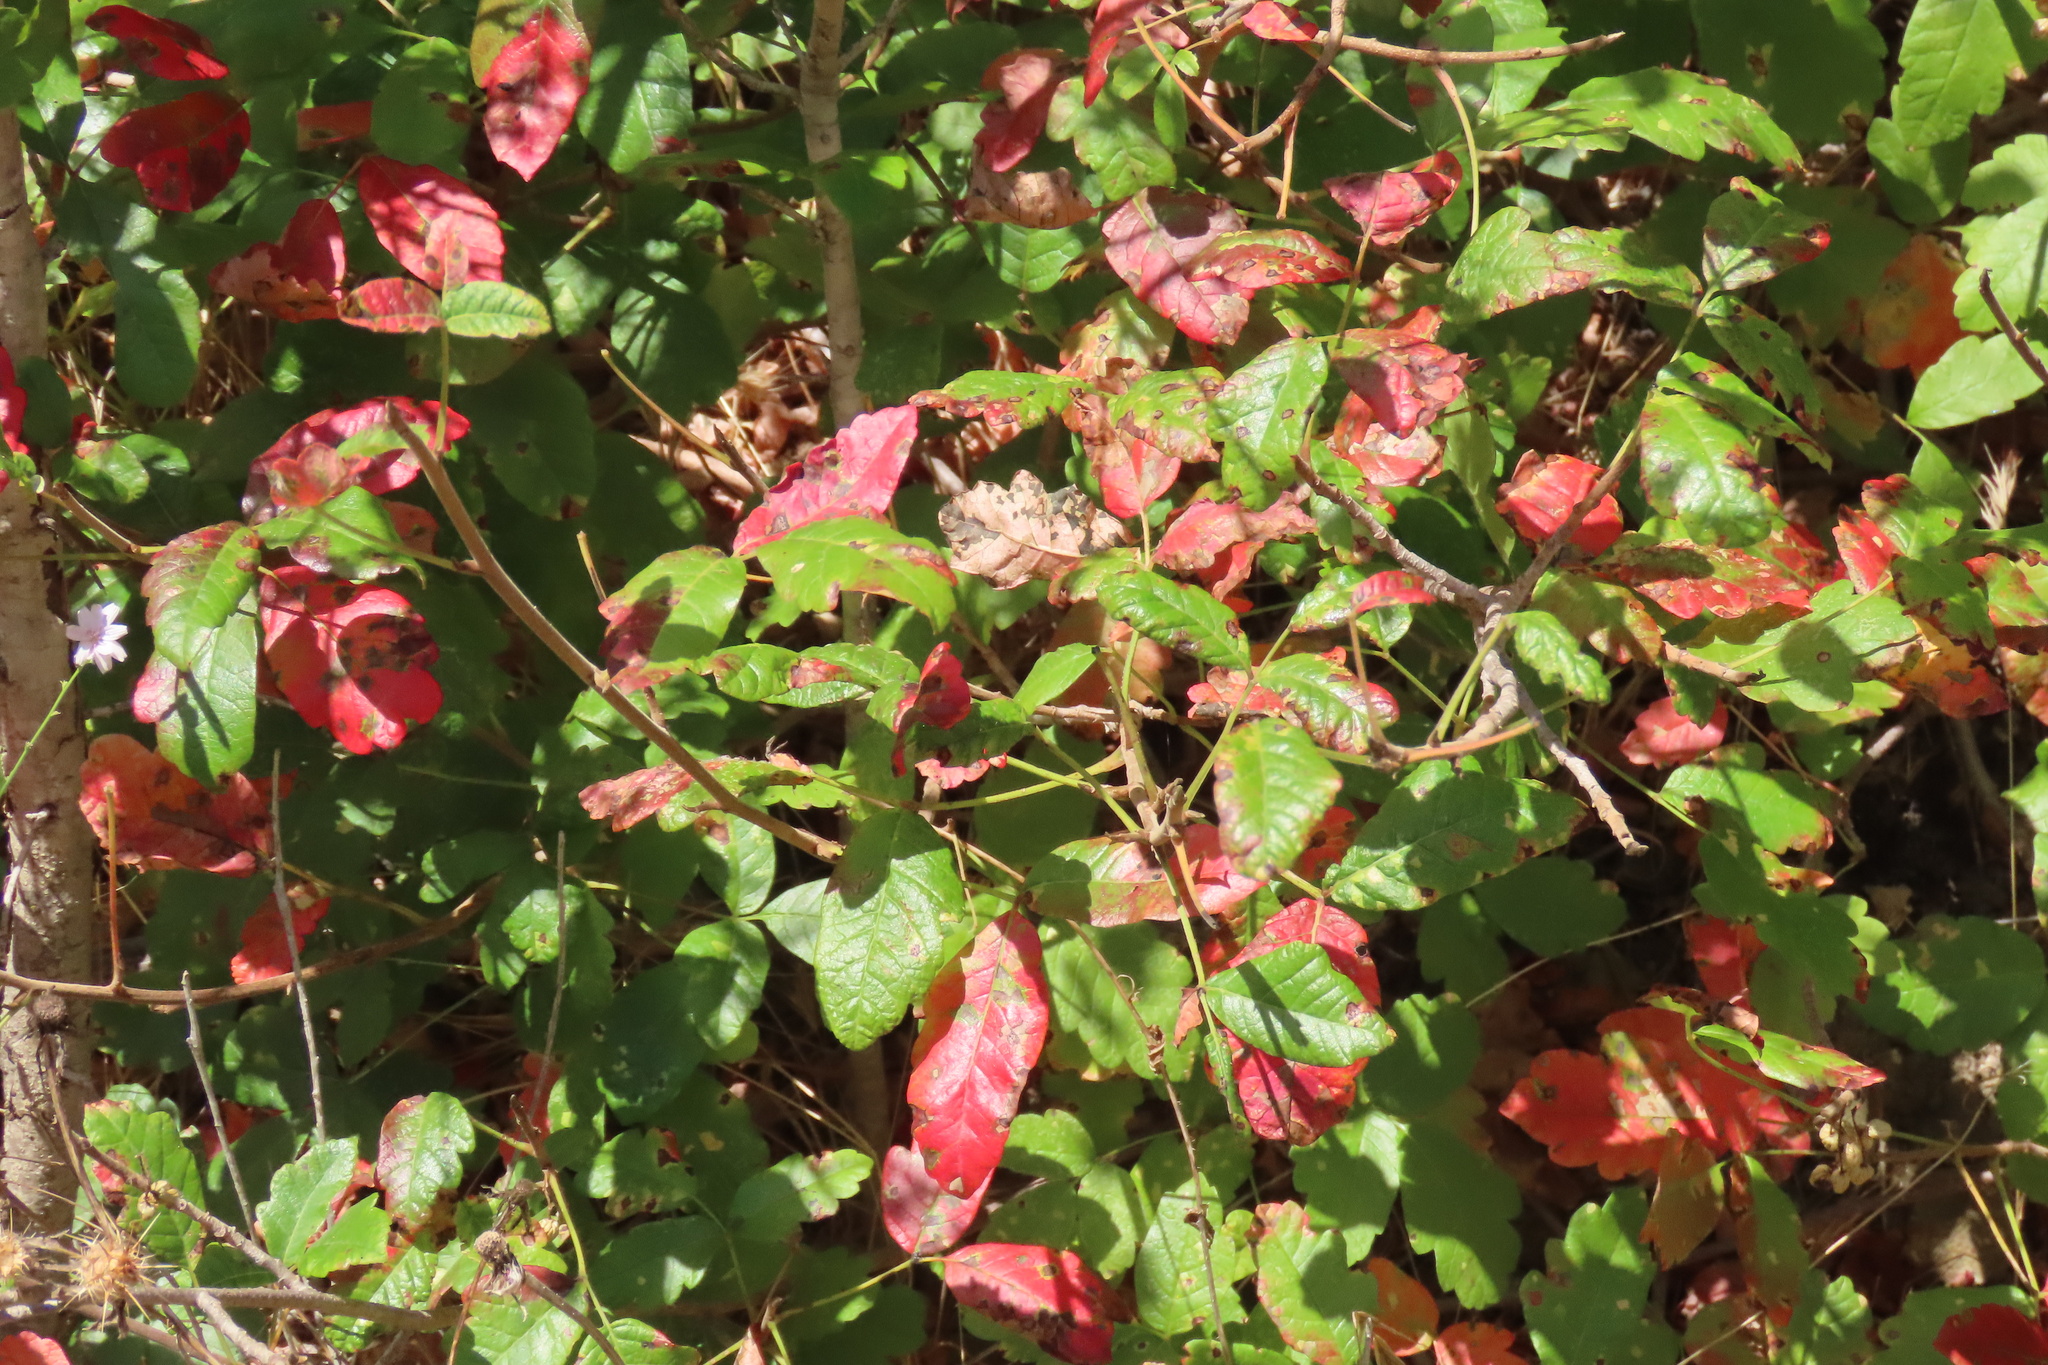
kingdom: Plantae
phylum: Tracheophyta
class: Magnoliopsida
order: Sapindales
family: Anacardiaceae
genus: Toxicodendron
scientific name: Toxicodendron diversilobum
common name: Pacific poison-oak
